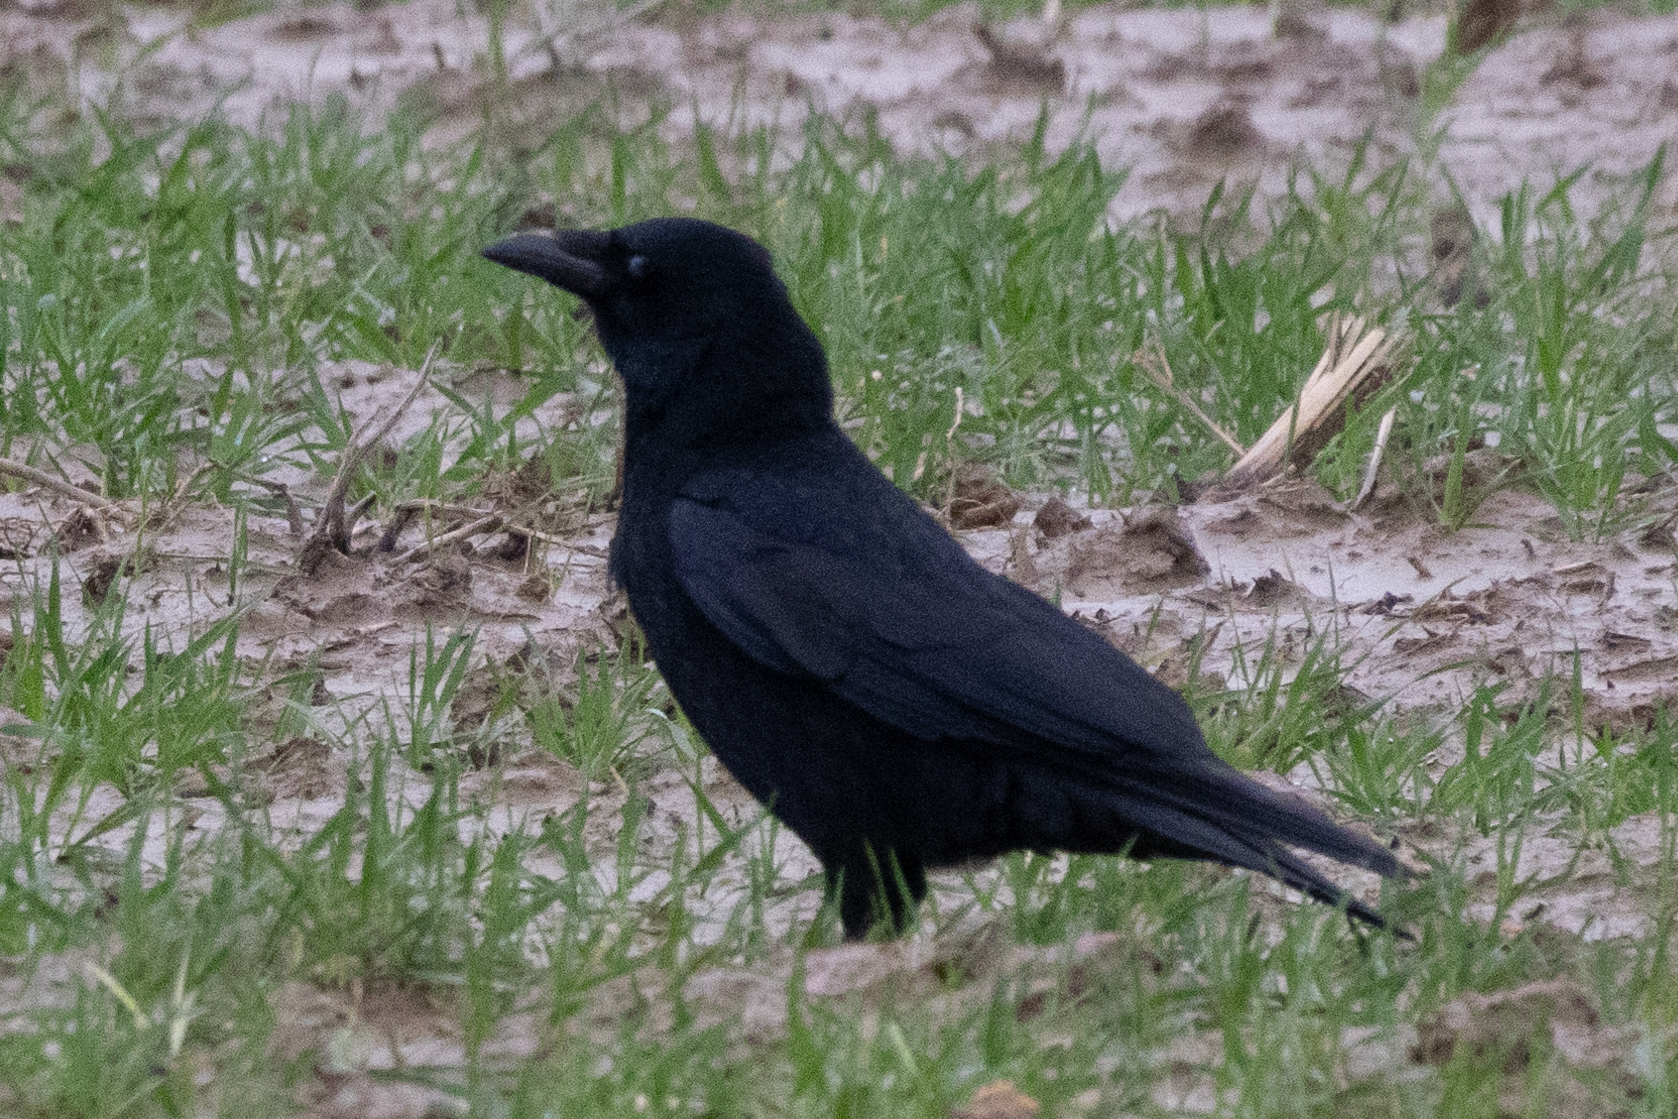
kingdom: Animalia
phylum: Chordata
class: Aves
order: Passeriformes
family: Corvidae
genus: Corvus
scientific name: Corvus corone
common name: Carrion crow
